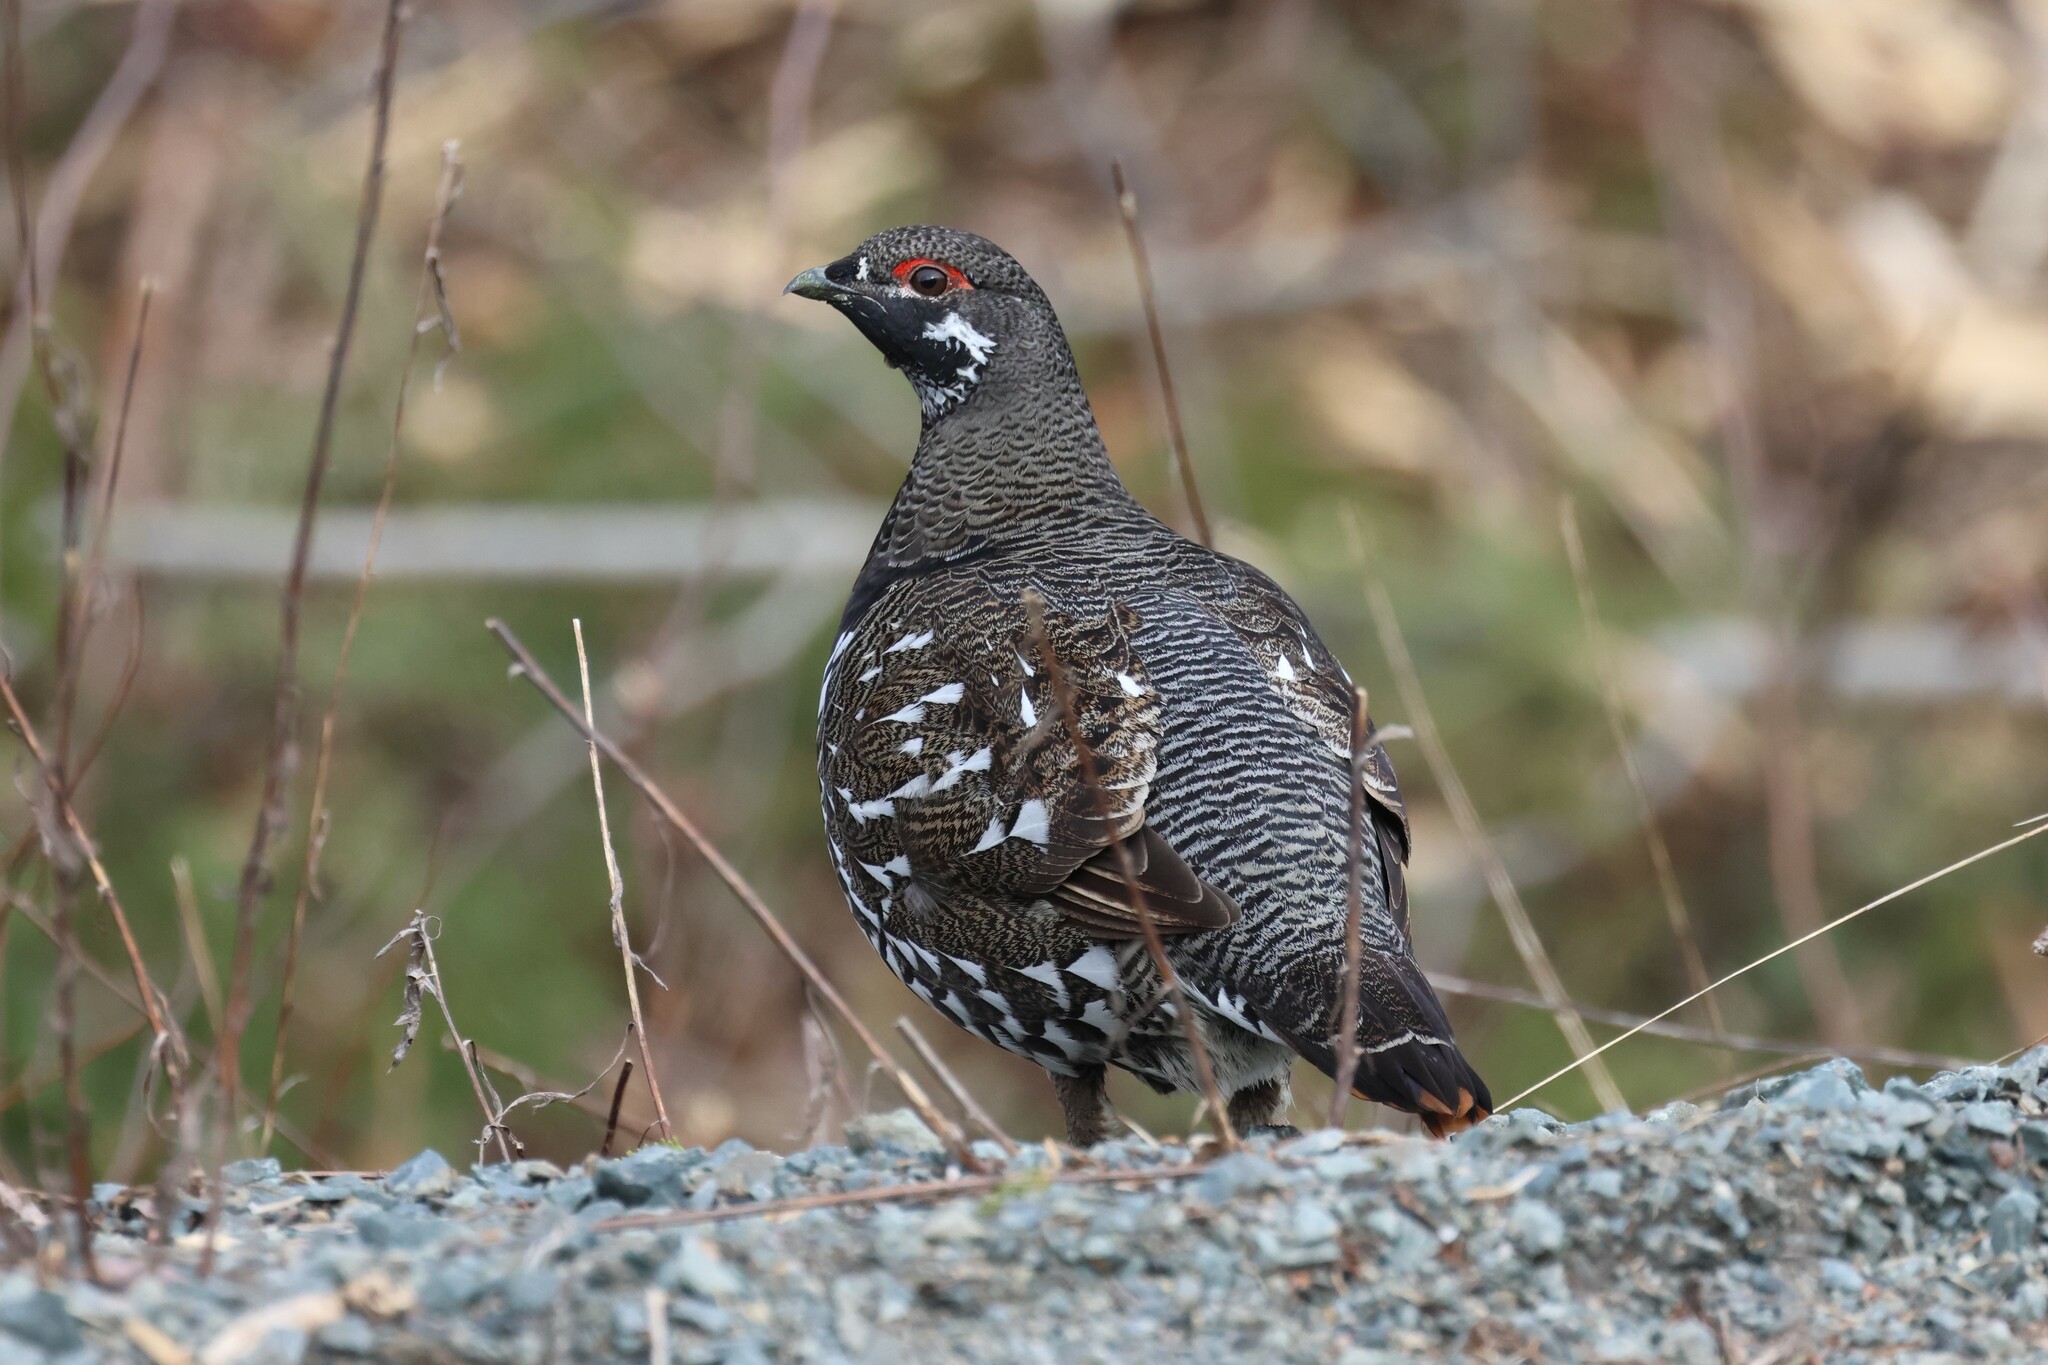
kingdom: Animalia
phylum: Chordata
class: Aves
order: Galliformes
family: Phasianidae
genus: Canachites
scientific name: Canachites canadensis
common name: Spruce grouse
